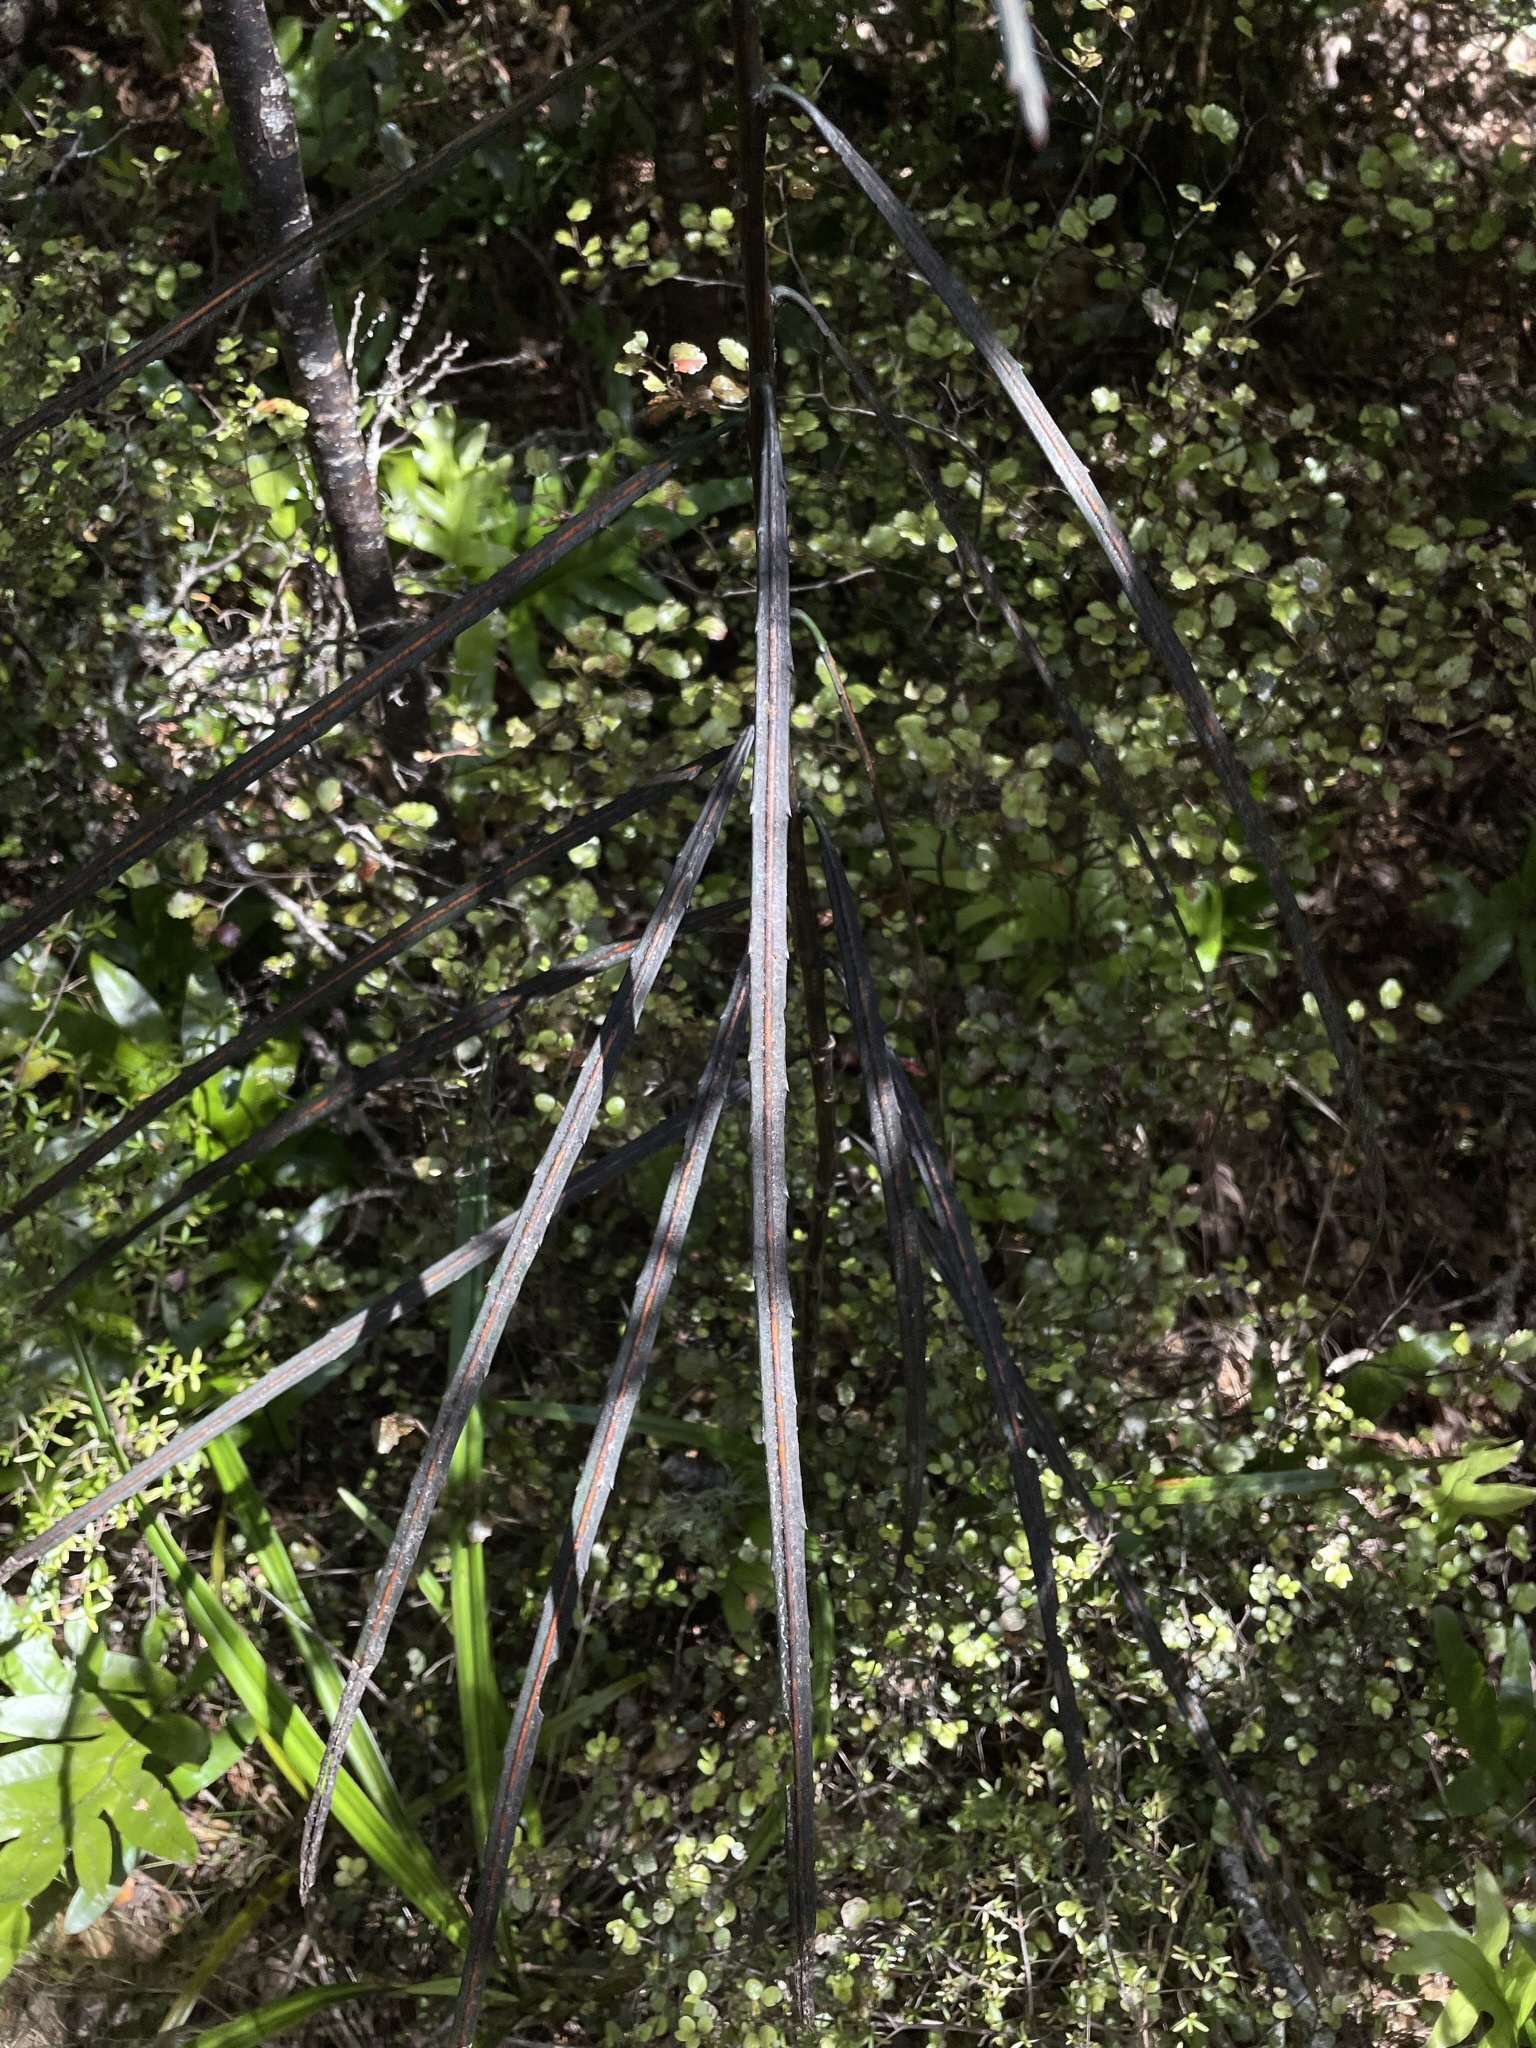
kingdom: Plantae
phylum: Tracheophyta
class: Magnoliopsida
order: Apiales
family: Araliaceae
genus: Pseudopanax
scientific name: Pseudopanax crassifolius
